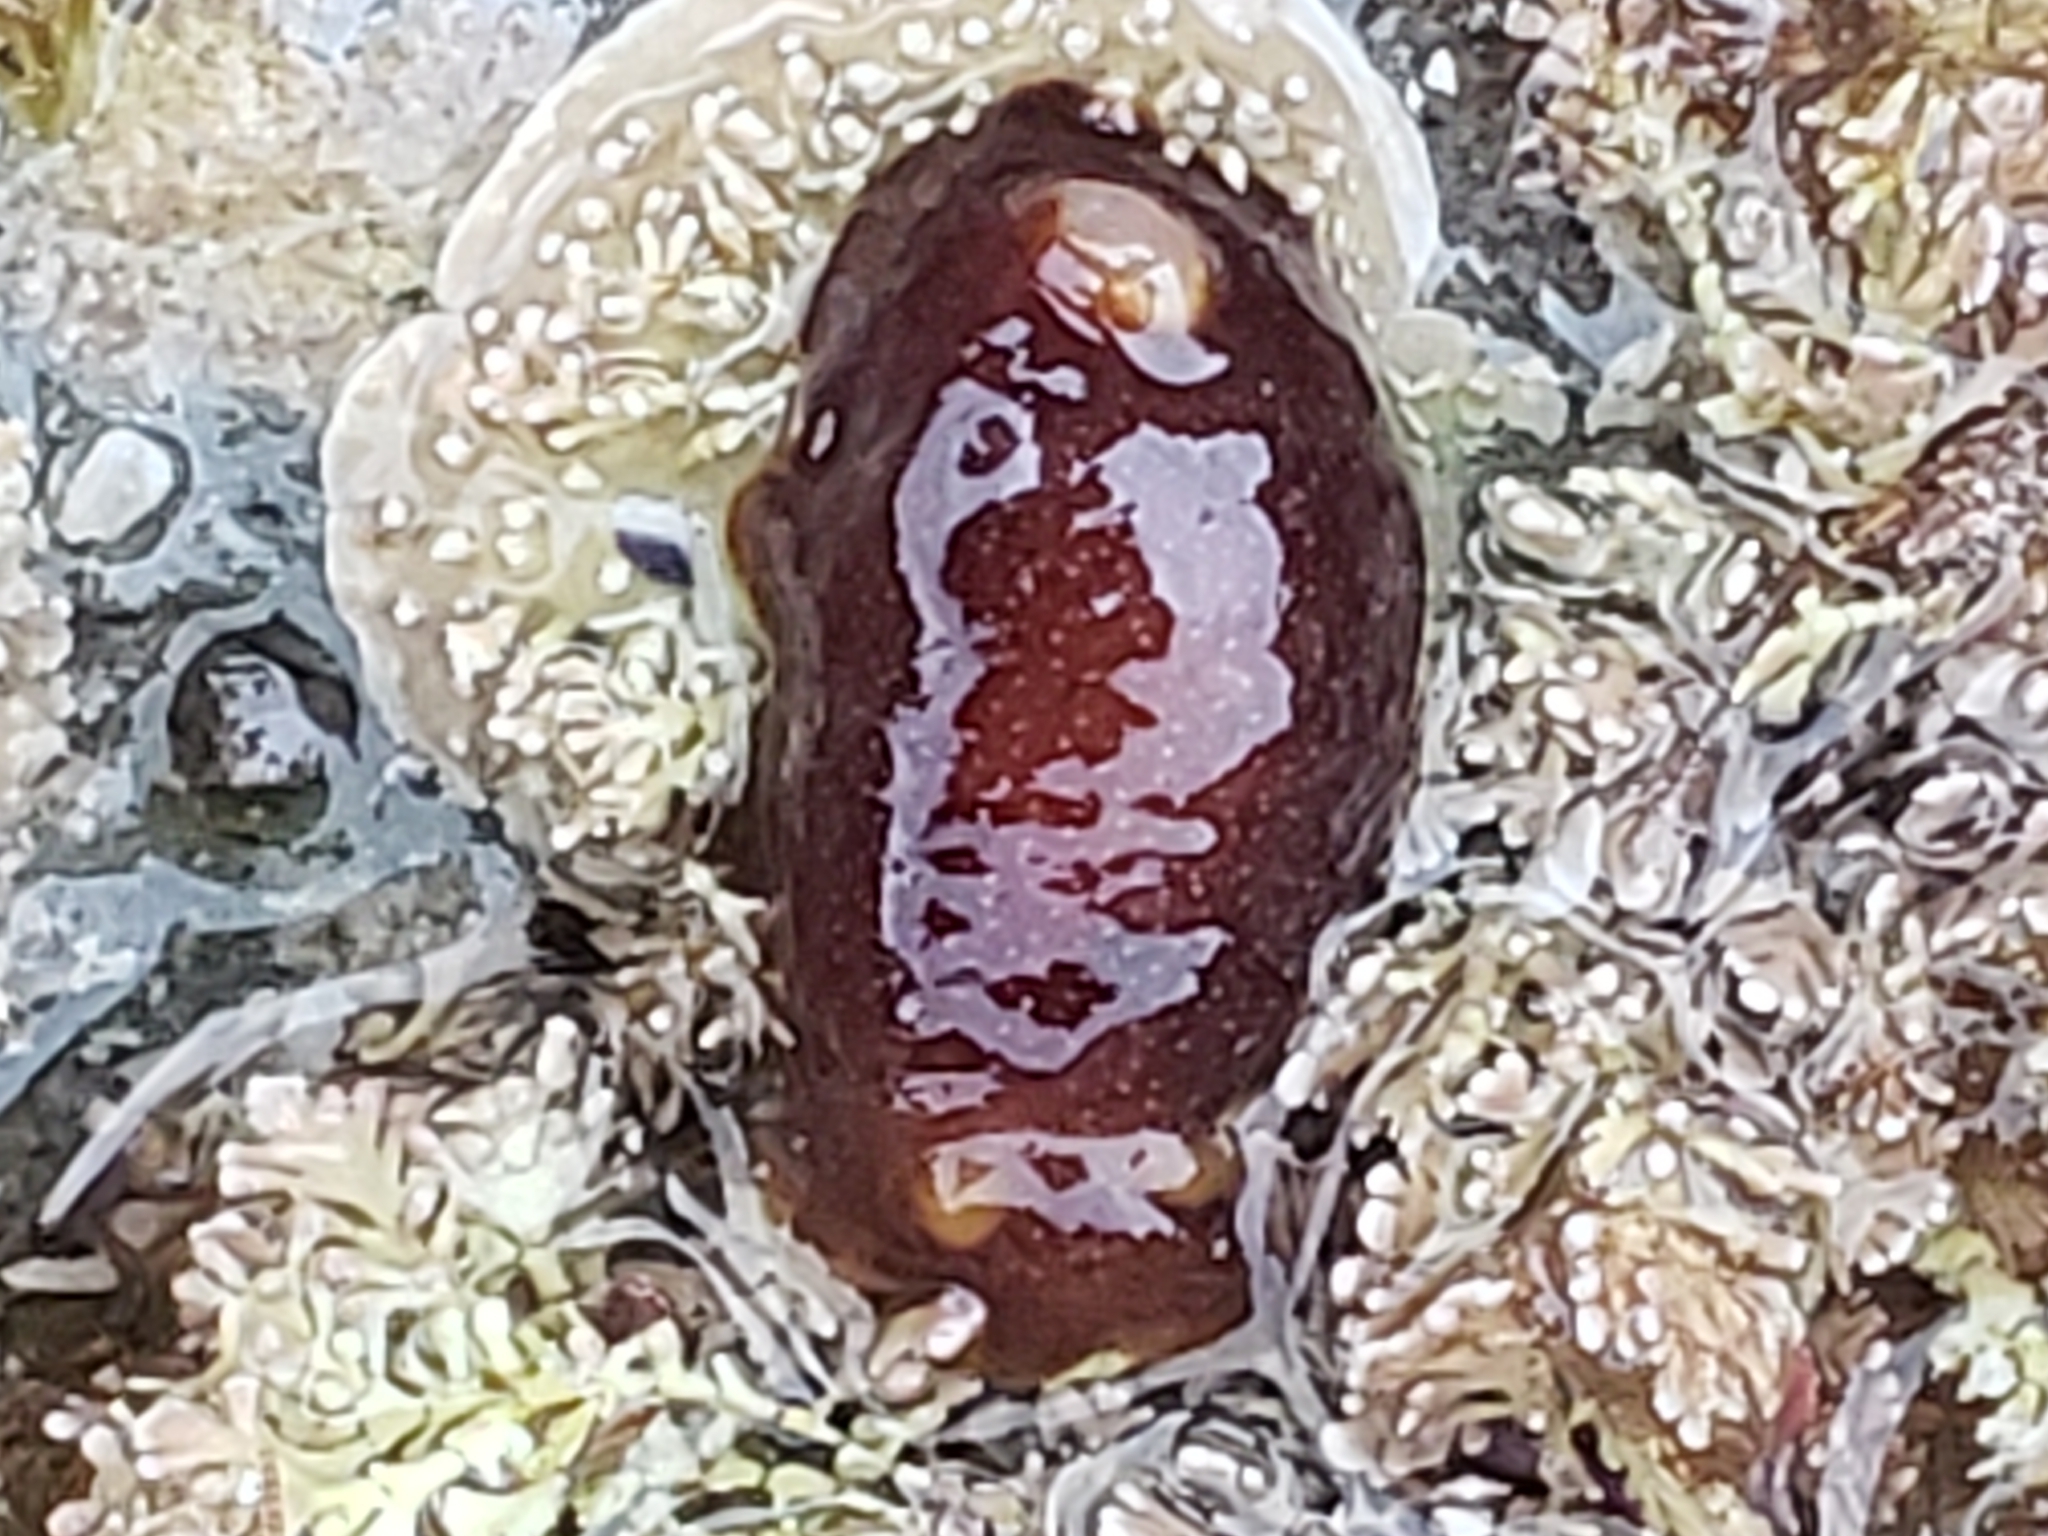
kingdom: Animalia
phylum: Mollusca
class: Gastropoda
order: Nudibranchia
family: Dendrodorididae
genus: Doriopsilla
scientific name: Doriopsilla albopunctata
